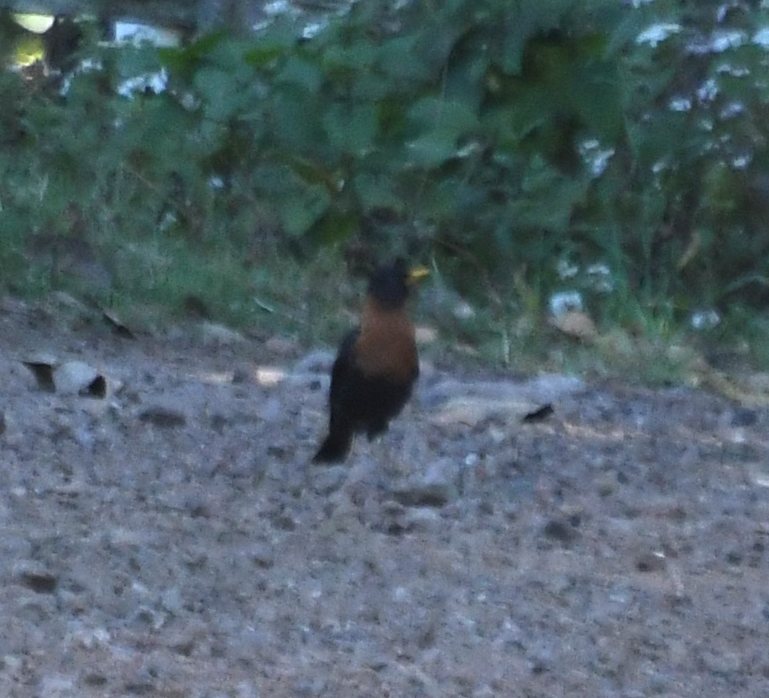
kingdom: Animalia
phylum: Chordata
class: Aves
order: Passeriformes
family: Turdidae
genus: Turdus
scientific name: Turdus rufitorques
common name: Rufous-collared thrush
